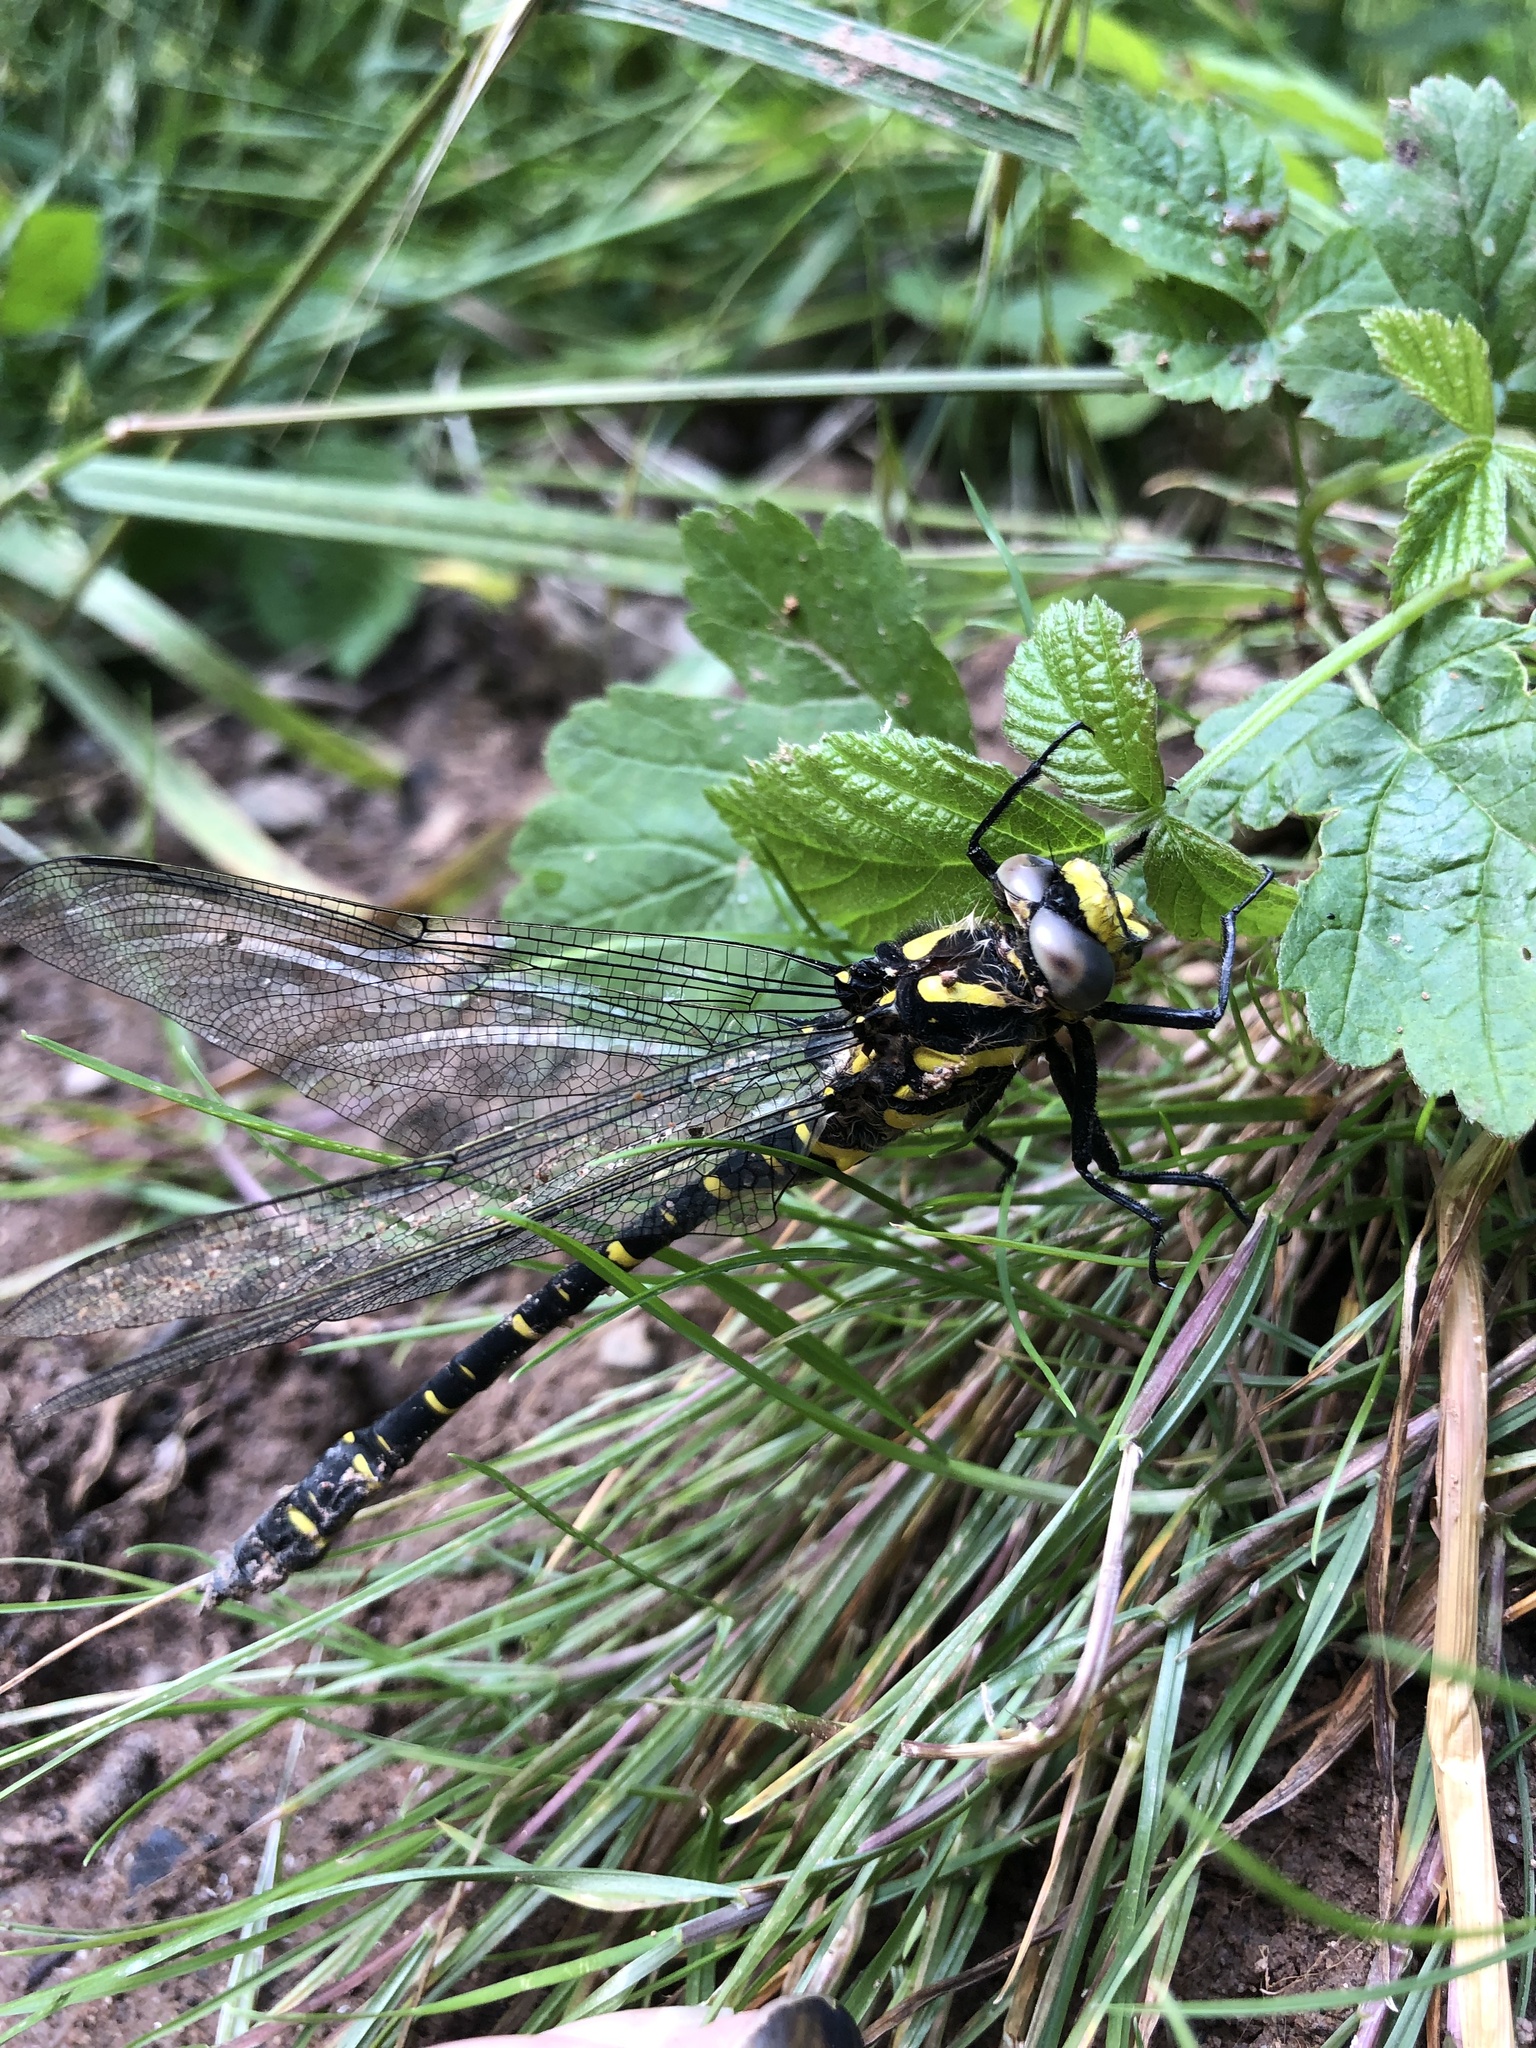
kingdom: Animalia
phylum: Arthropoda
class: Insecta
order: Odonata
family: Cordulegastridae
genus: Cordulegaster
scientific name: Cordulegaster boltonii
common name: Golden-ringed dragonfly
